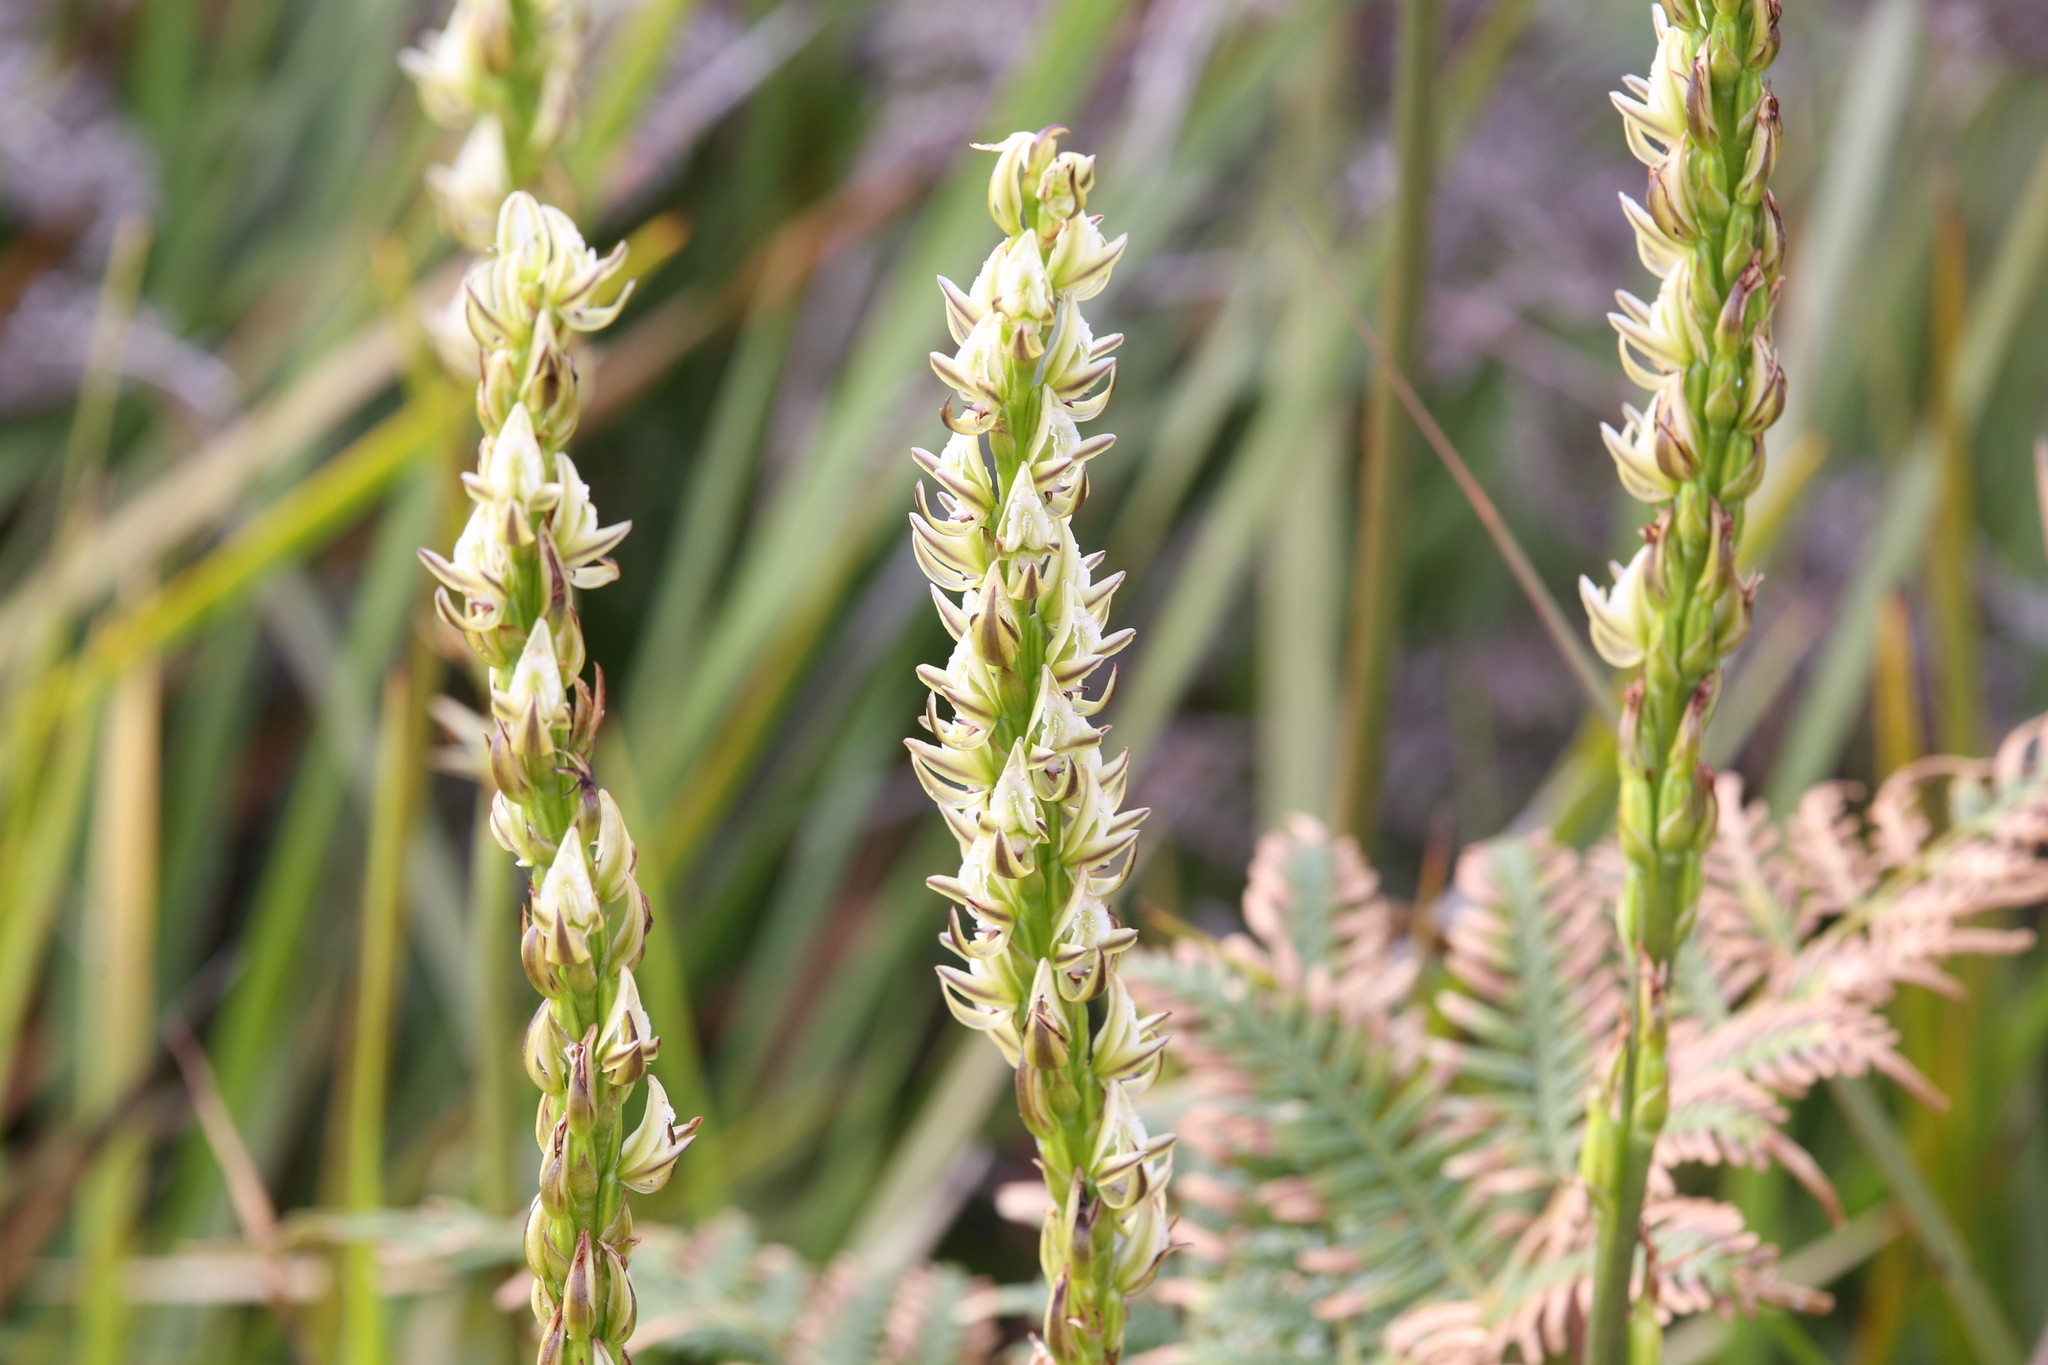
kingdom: Plantae
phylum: Tracheophyta
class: Liliopsida
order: Asparagales
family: Orchidaceae
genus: Prasophyllum
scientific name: Prasophyllum brownii
